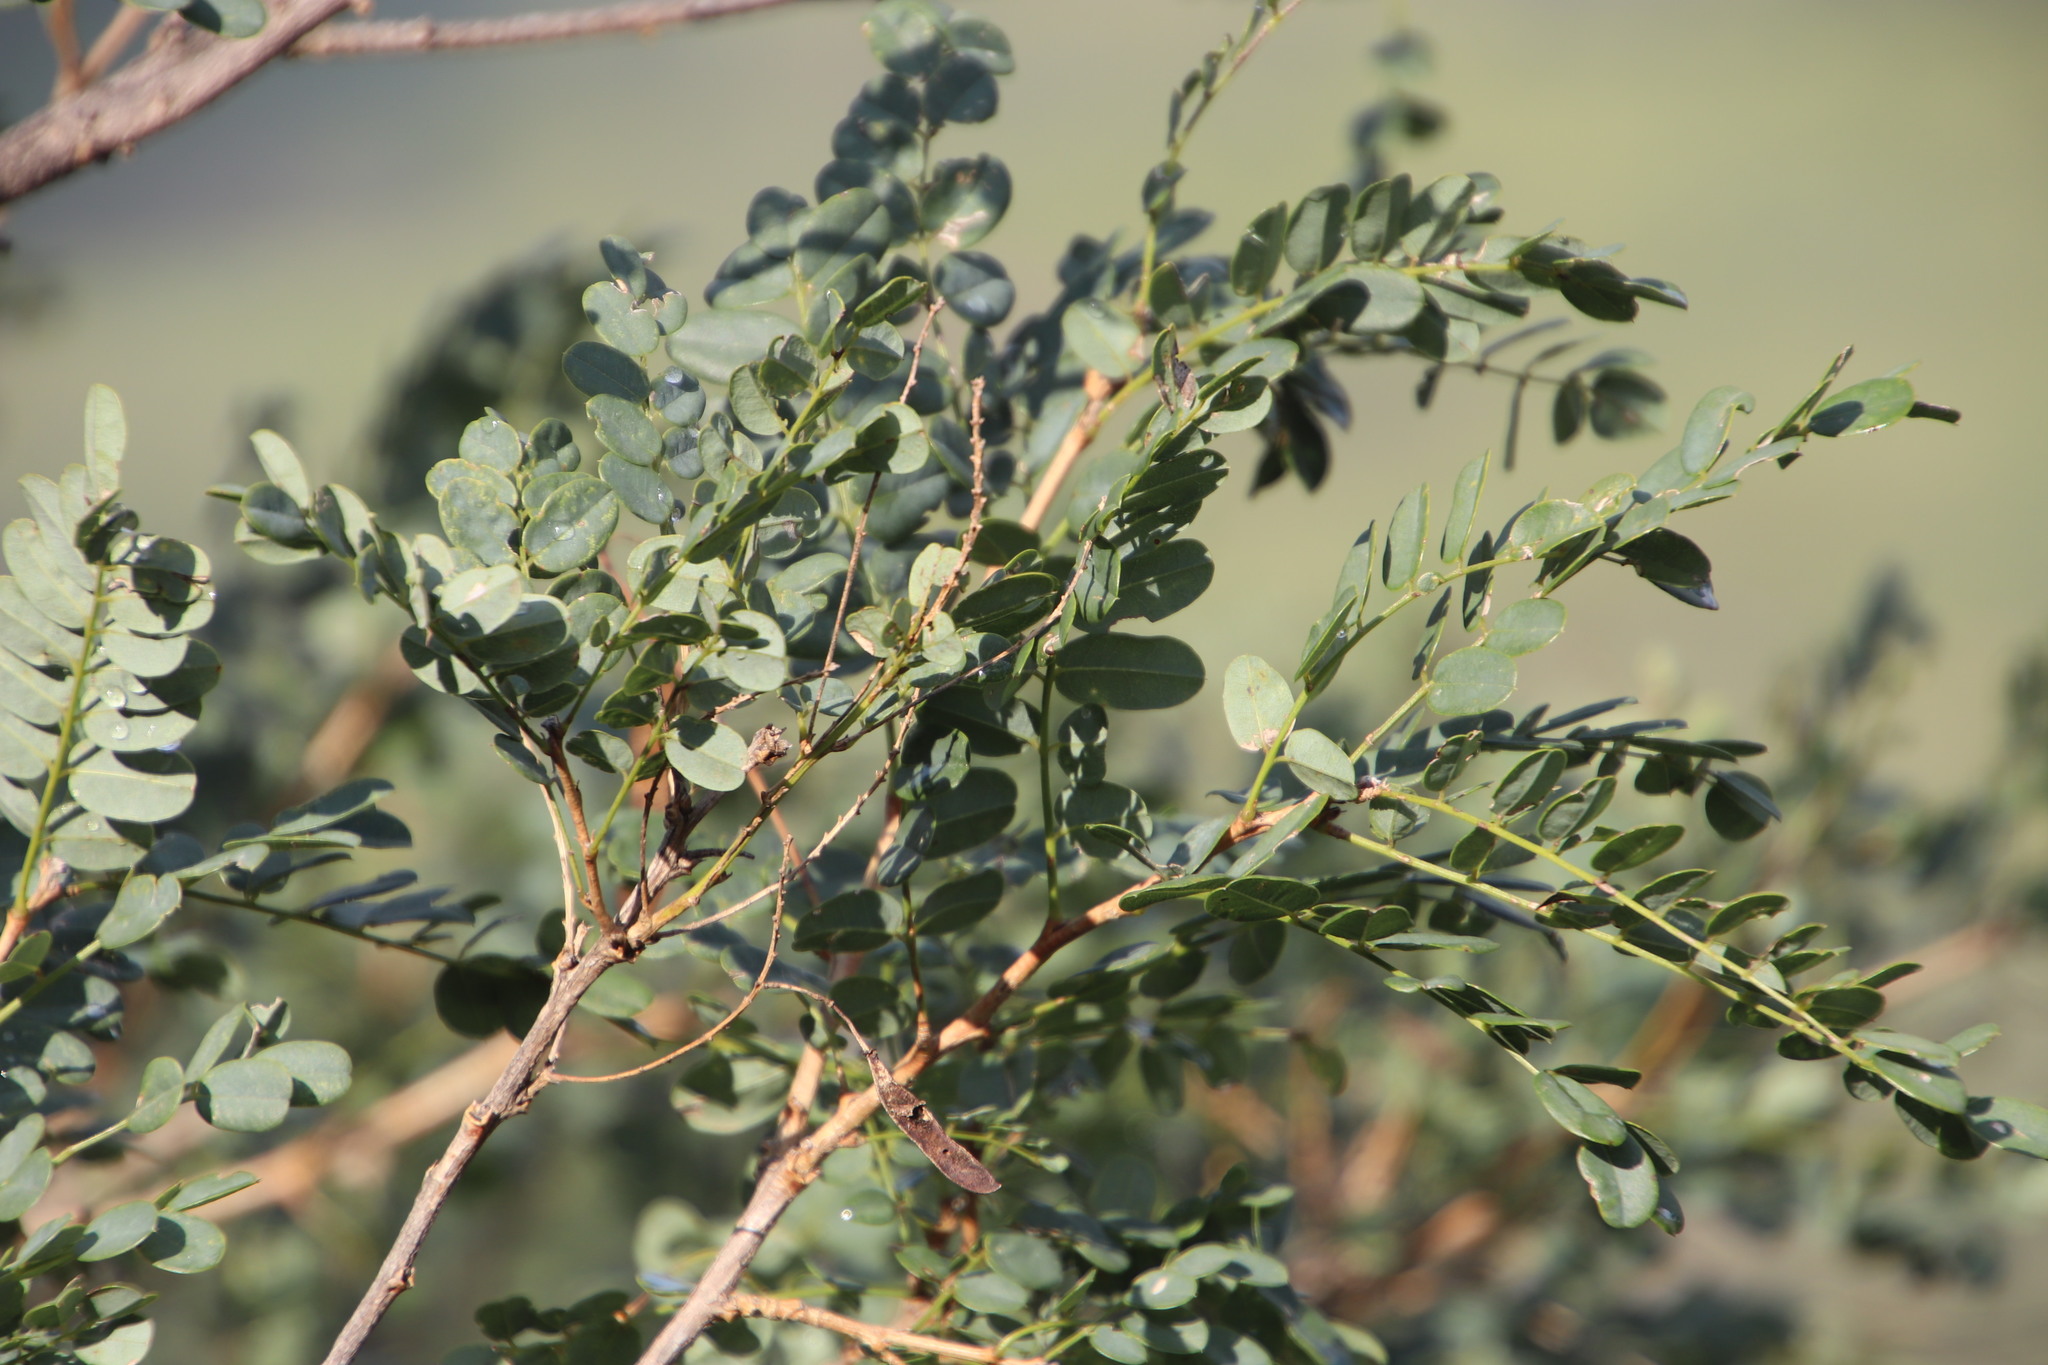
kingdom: Plantae
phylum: Tracheophyta
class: Magnoliopsida
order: Fabales
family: Fabaceae
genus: Calpurnia
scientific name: Calpurnia sericea
